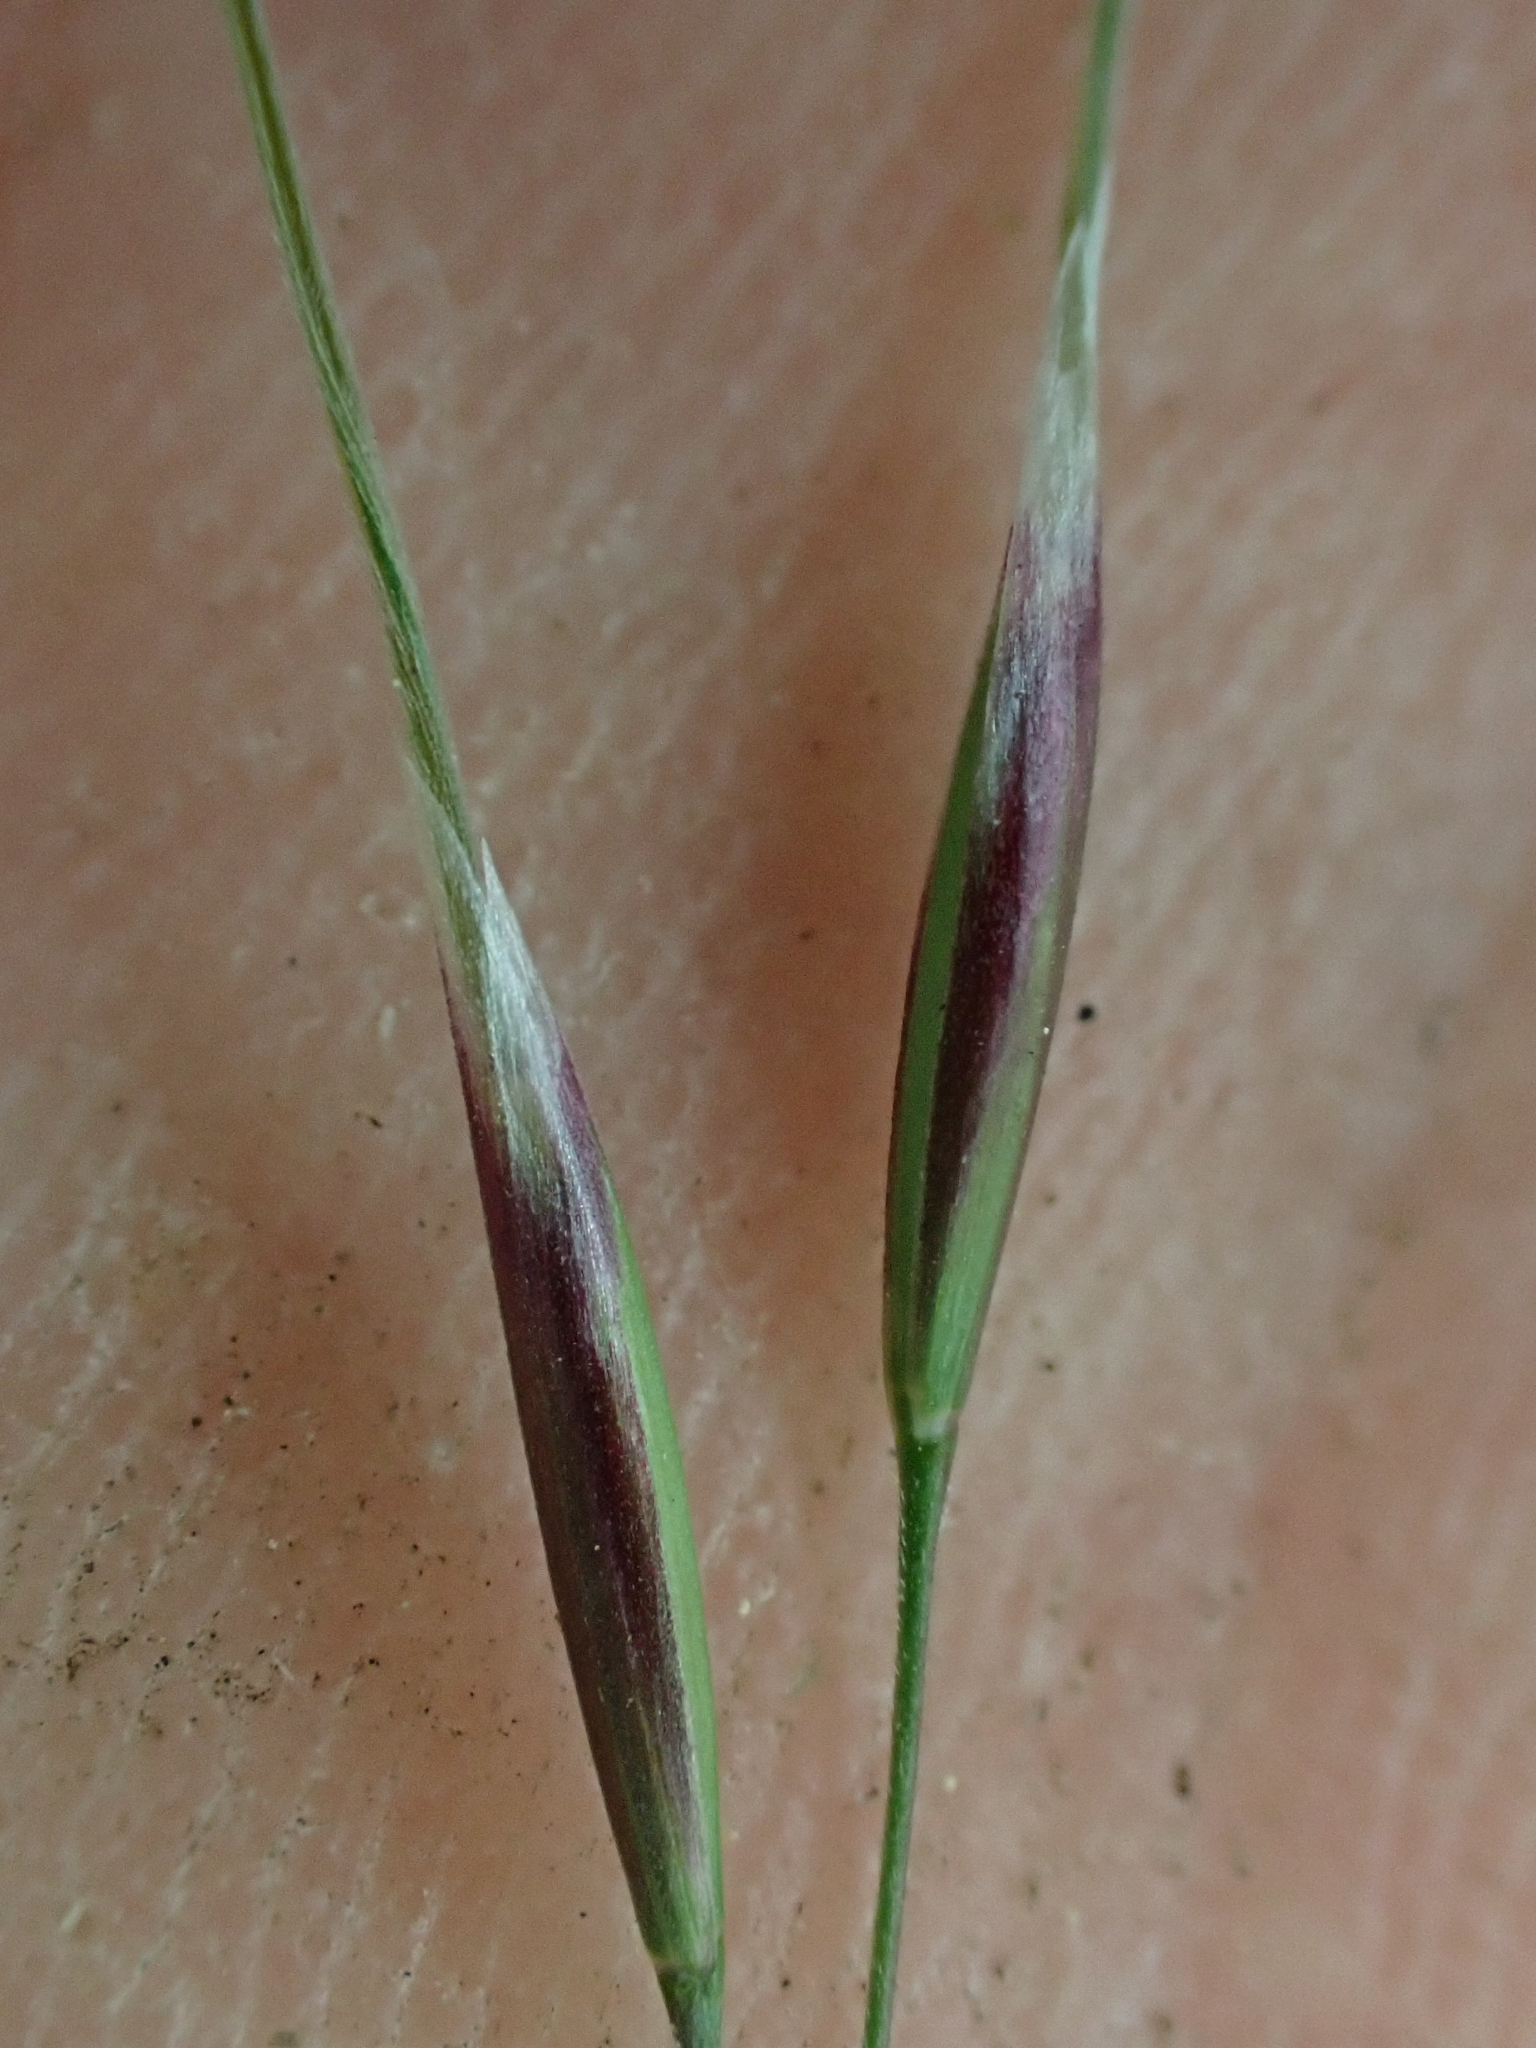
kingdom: Plantae
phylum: Tracheophyta
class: Liliopsida
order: Poales
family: Poaceae
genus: Eriocoma
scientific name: Eriocoma richardsonii
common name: Richardson's needlegrass
